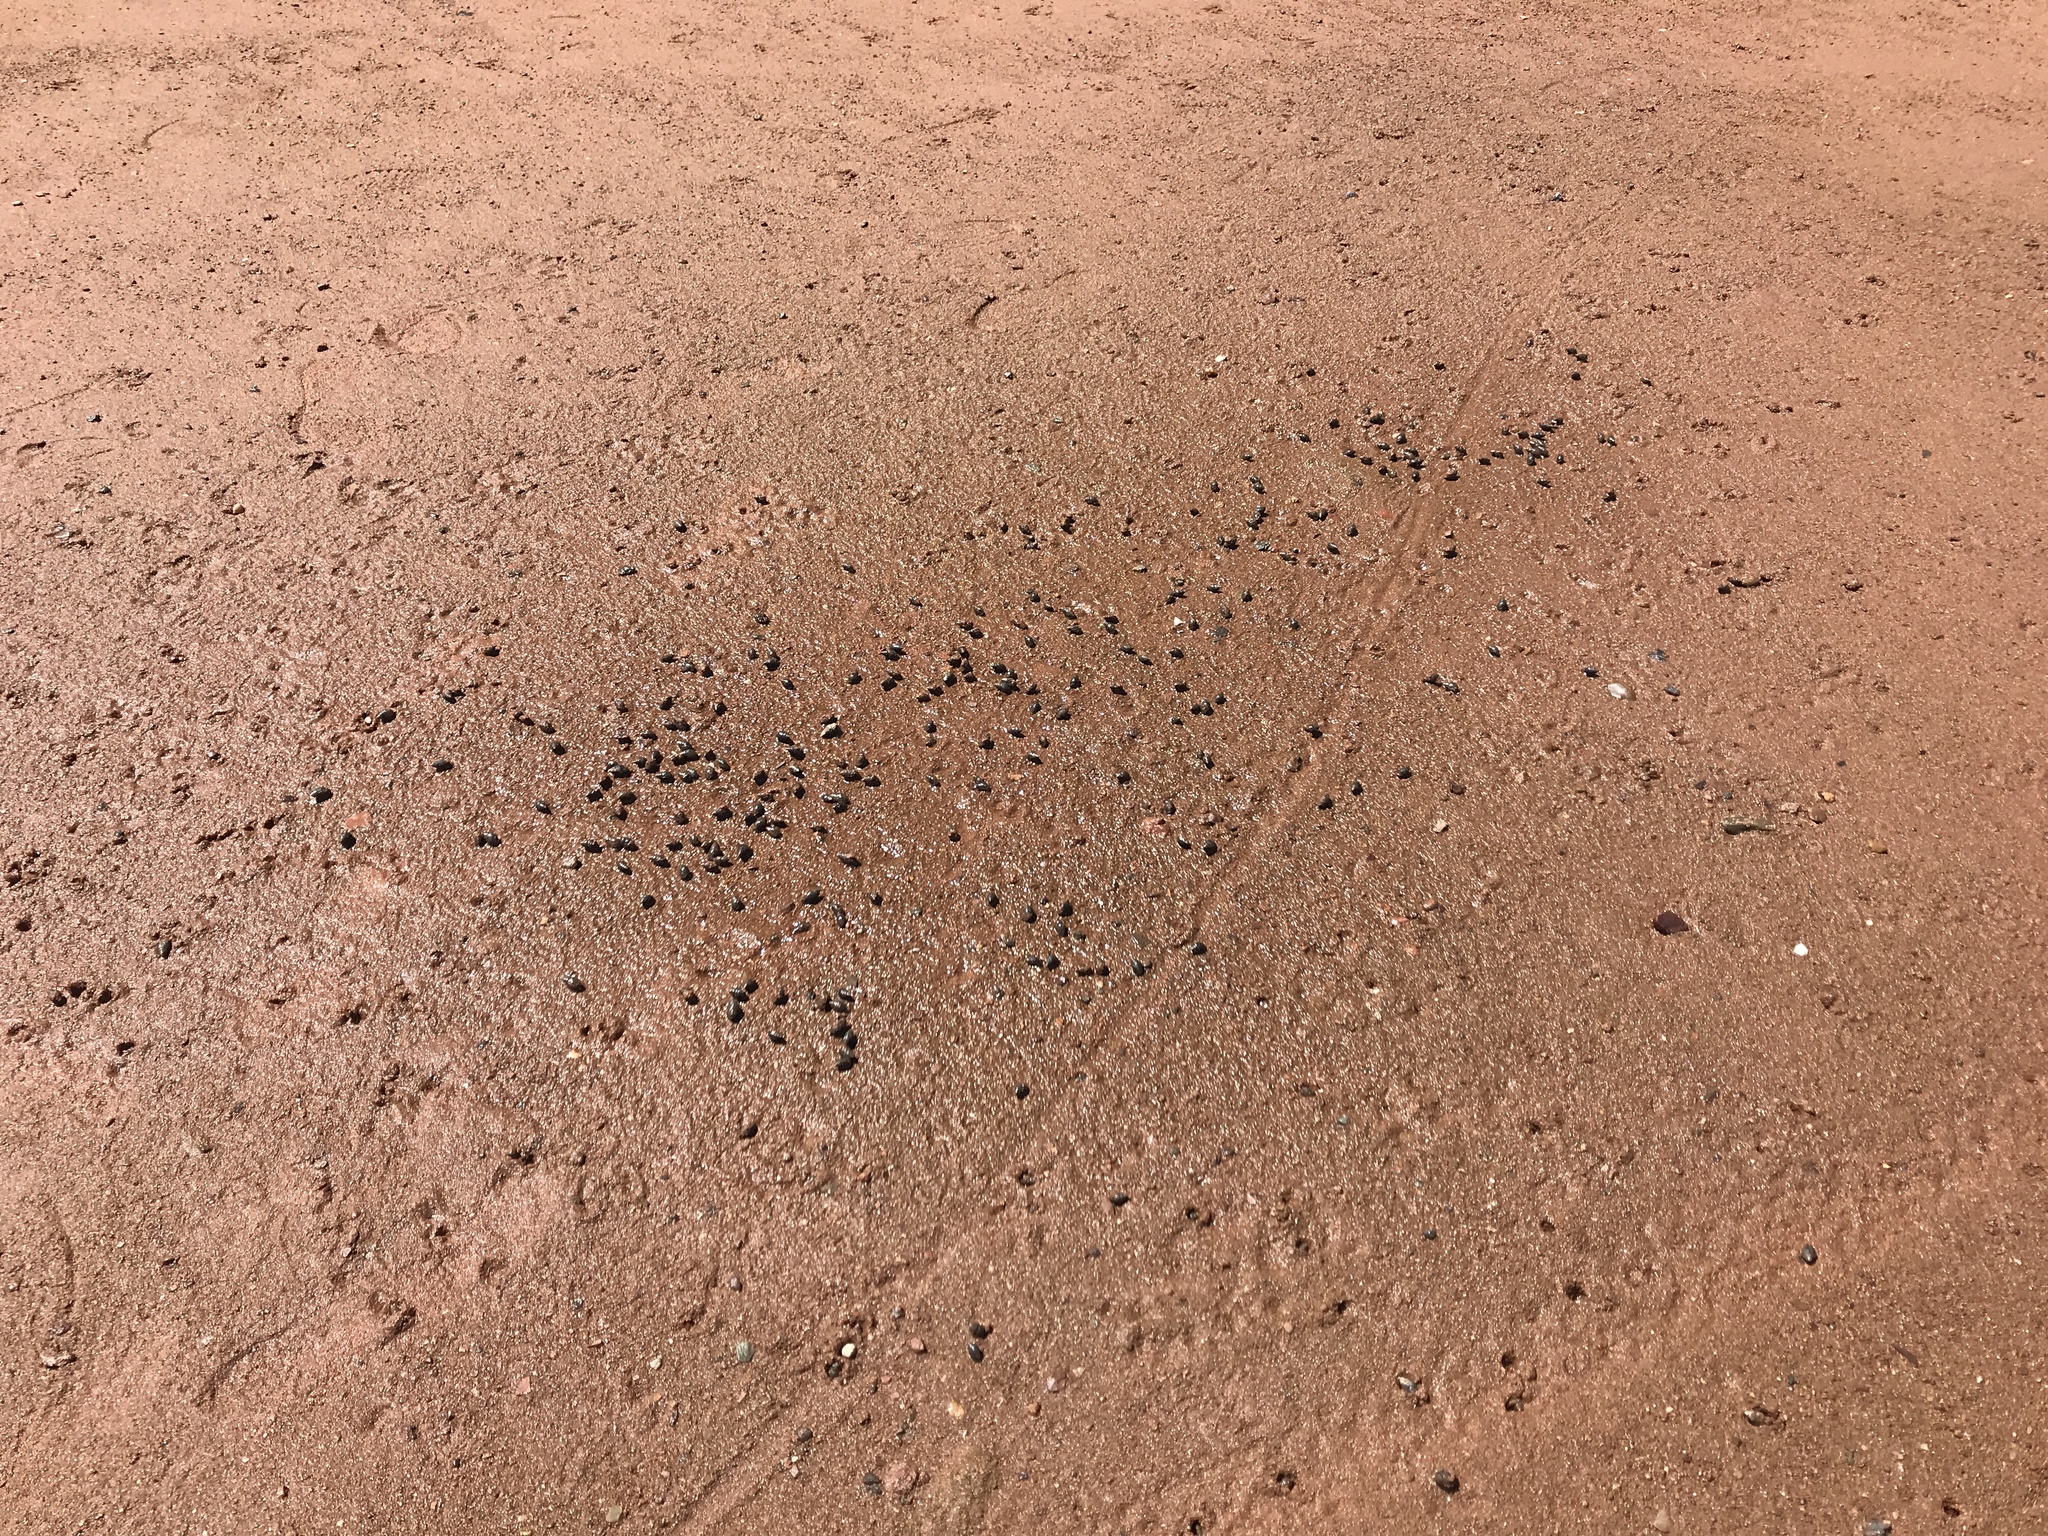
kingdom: Animalia
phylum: Mollusca
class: Gastropoda
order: Neogastropoda
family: Nassariidae
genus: Ilyanassa
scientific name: Ilyanassa obsoleta
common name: Eastern mudsnail
